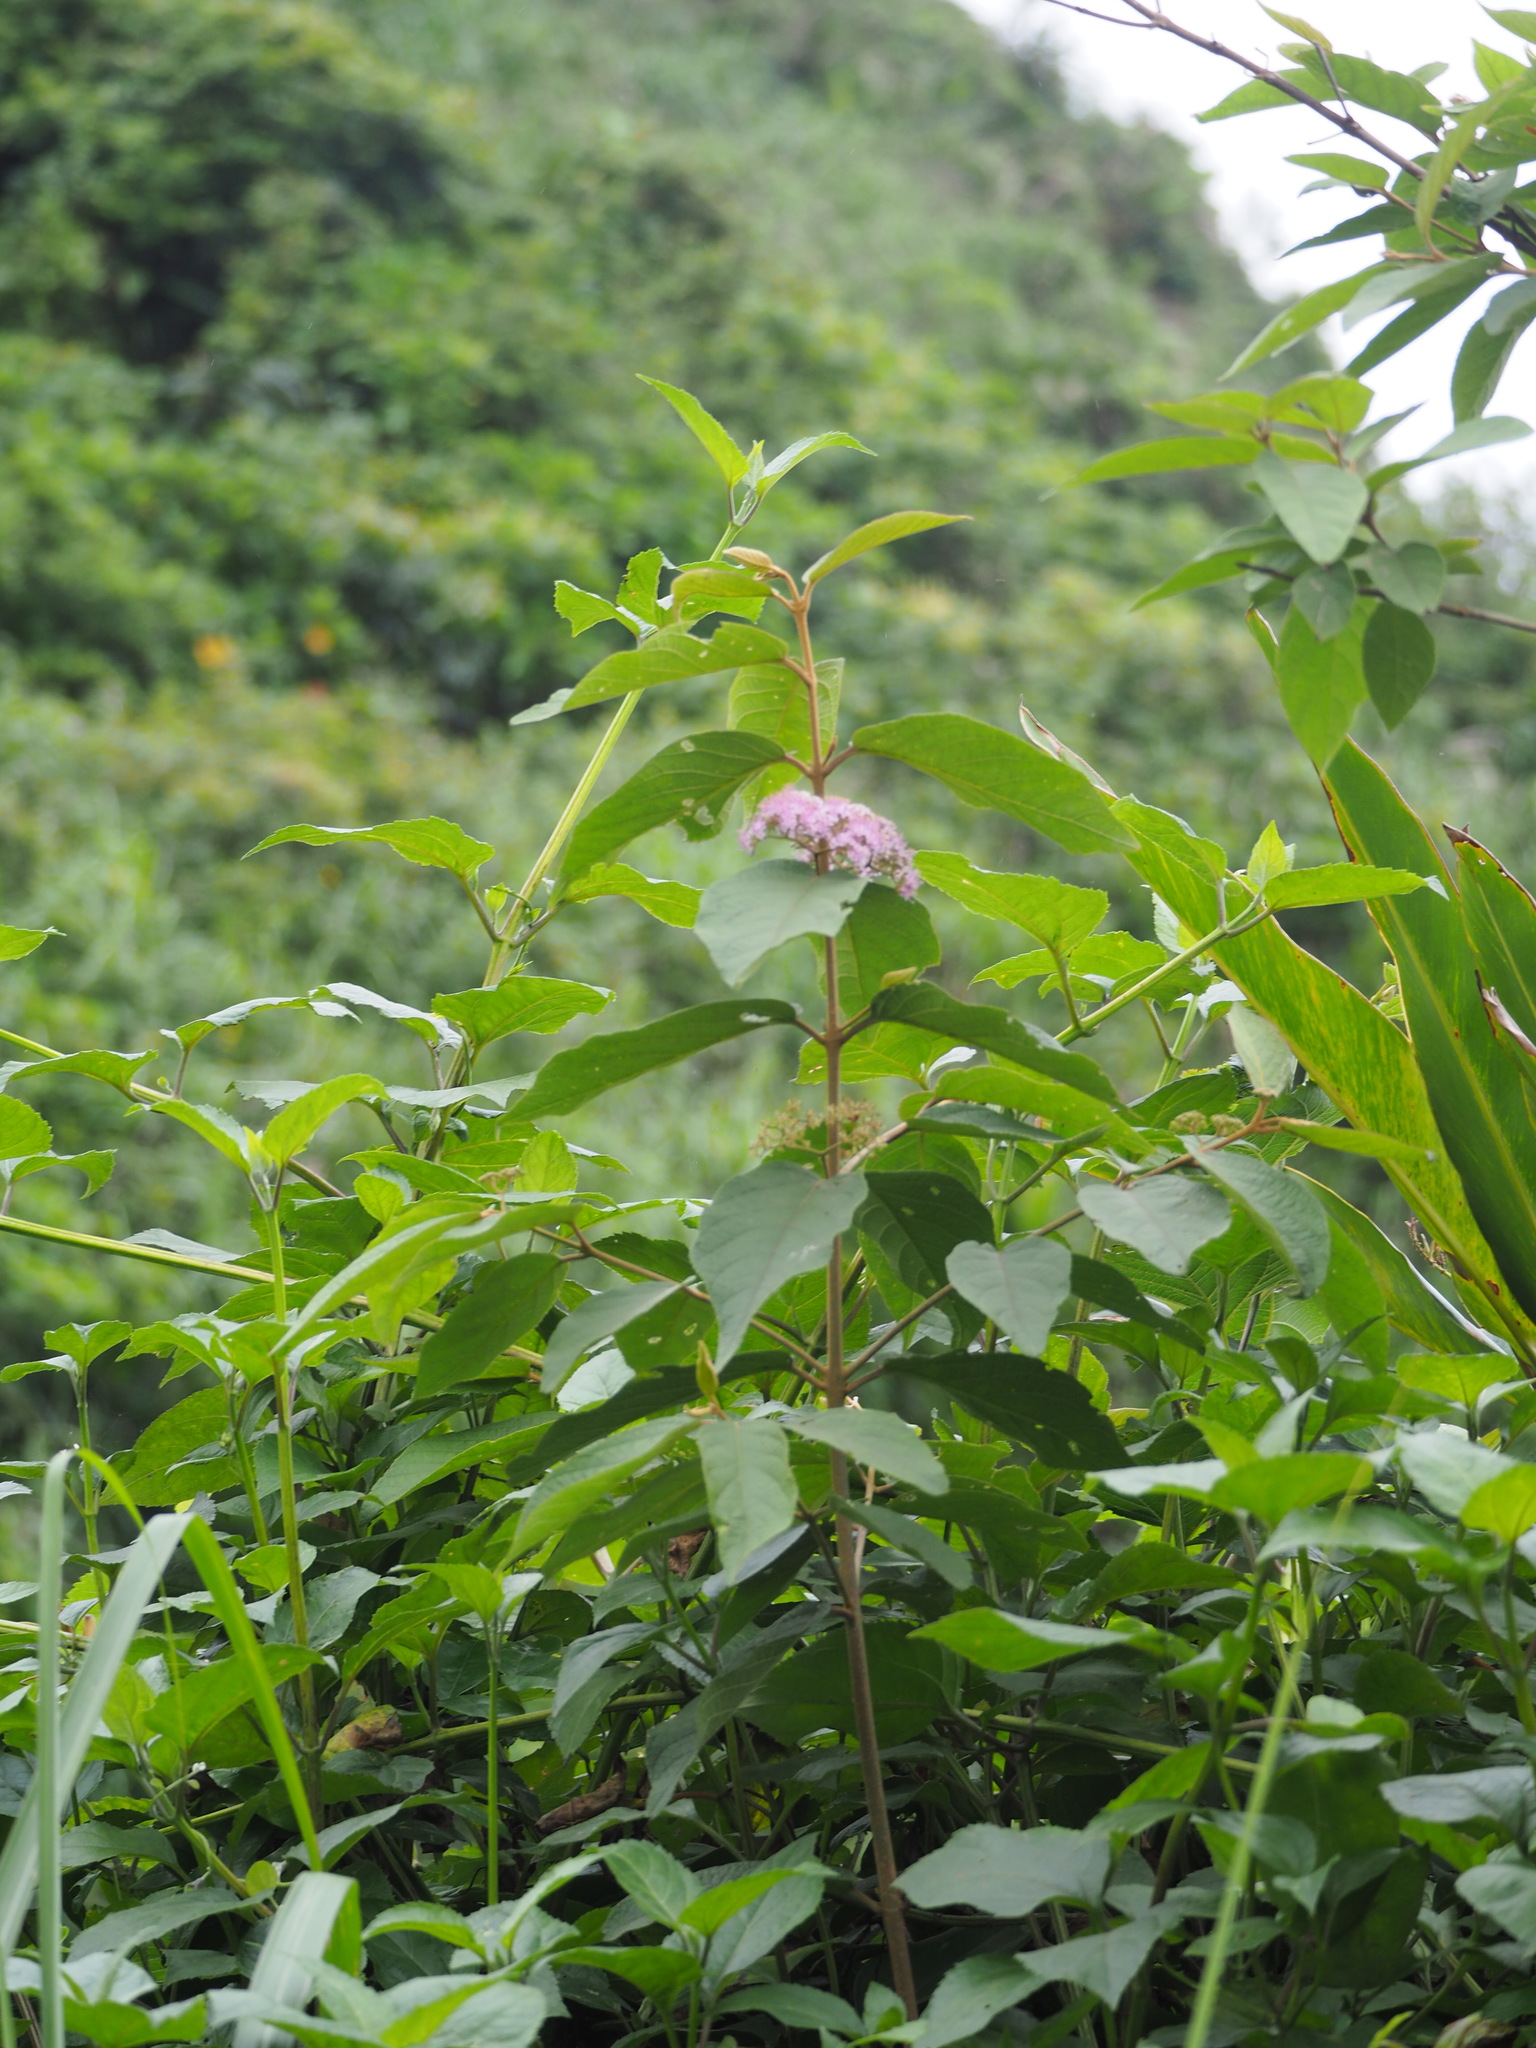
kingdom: Plantae
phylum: Tracheophyta
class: Magnoliopsida
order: Lamiales
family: Lamiaceae
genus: Callicarpa
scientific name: Callicarpa pedunculata
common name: Velvetleaf
